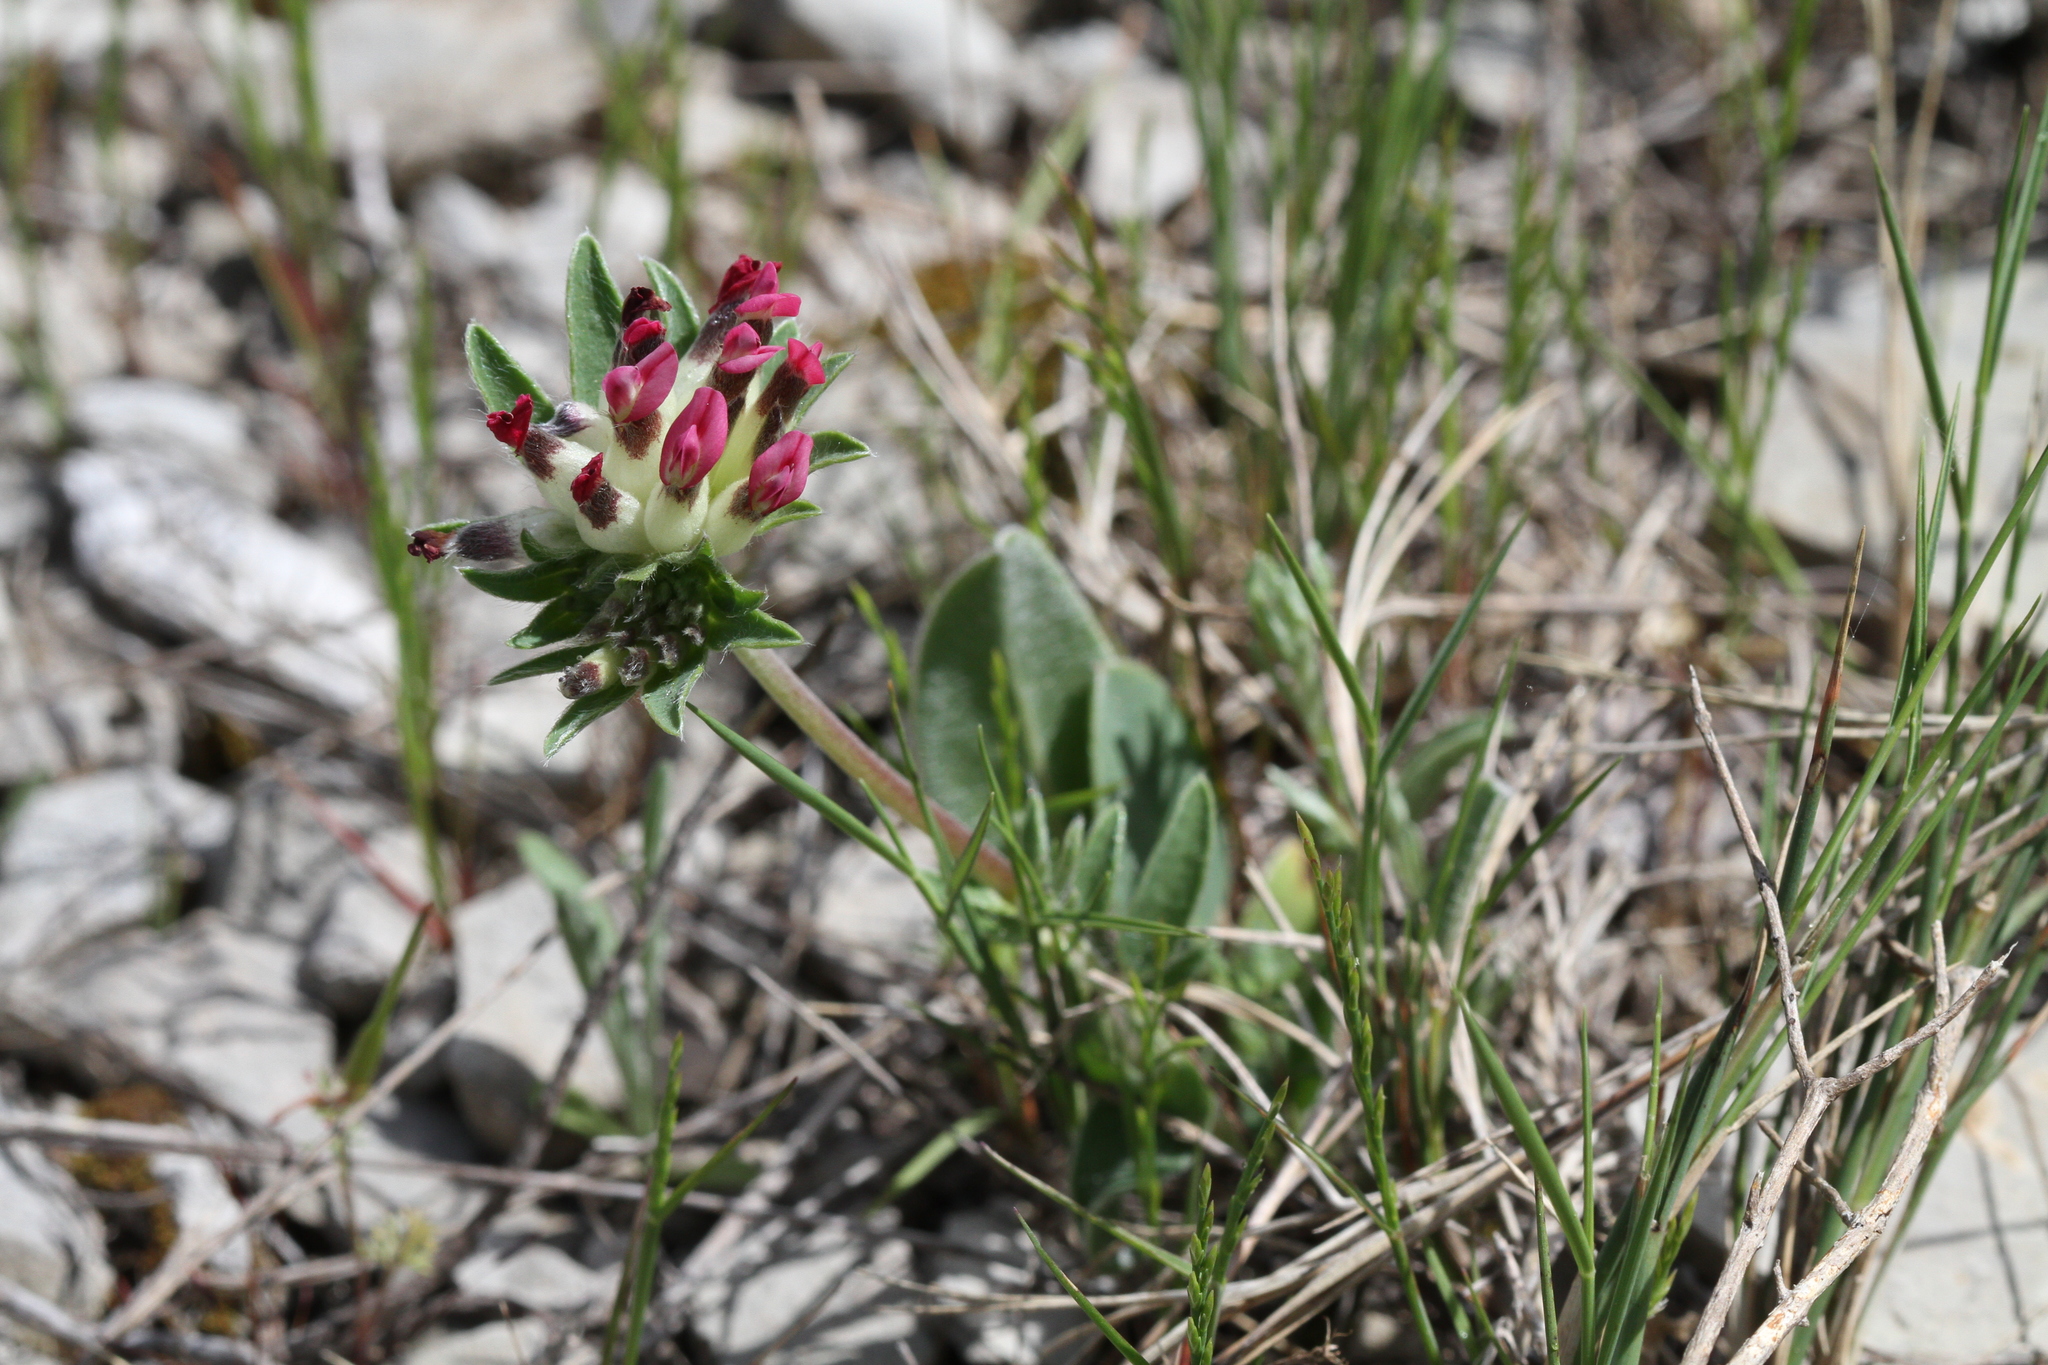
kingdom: Plantae
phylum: Tracheophyta
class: Magnoliopsida
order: Fabales
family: Fabaceae
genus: Anthyllis
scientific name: Anthyllis vulneraria
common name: Kidney vetch
